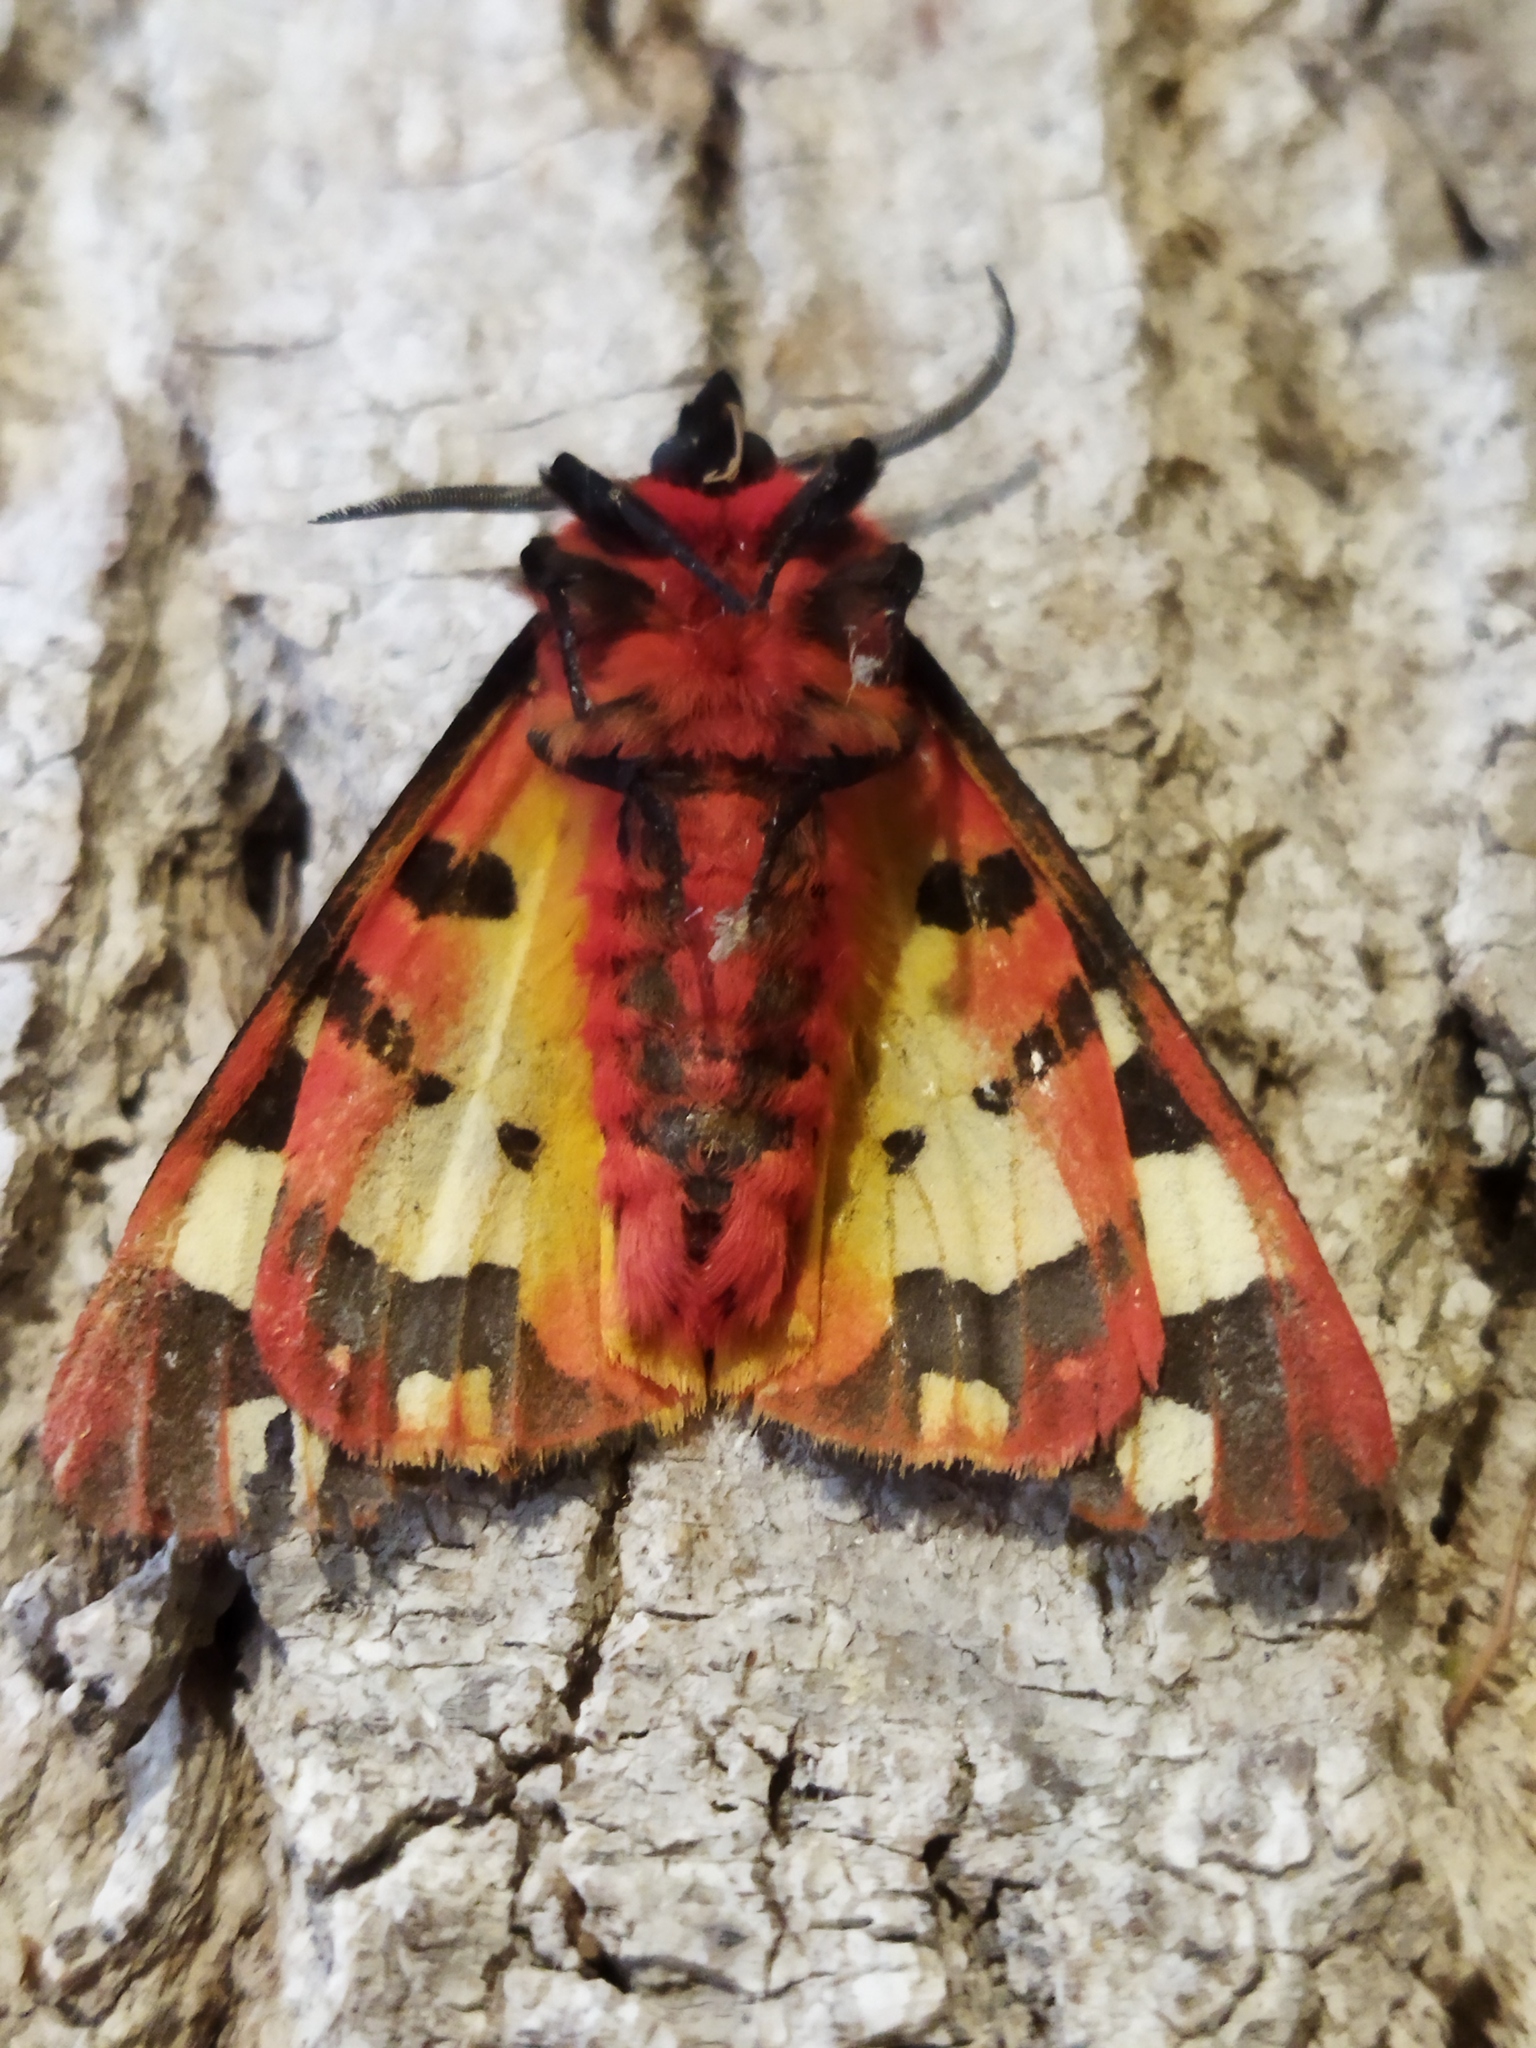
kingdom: Animalia
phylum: Arthropoda
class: Insecta
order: Lepidoptera
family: Erebidae
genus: Epicallia
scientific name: Epicallia villica
